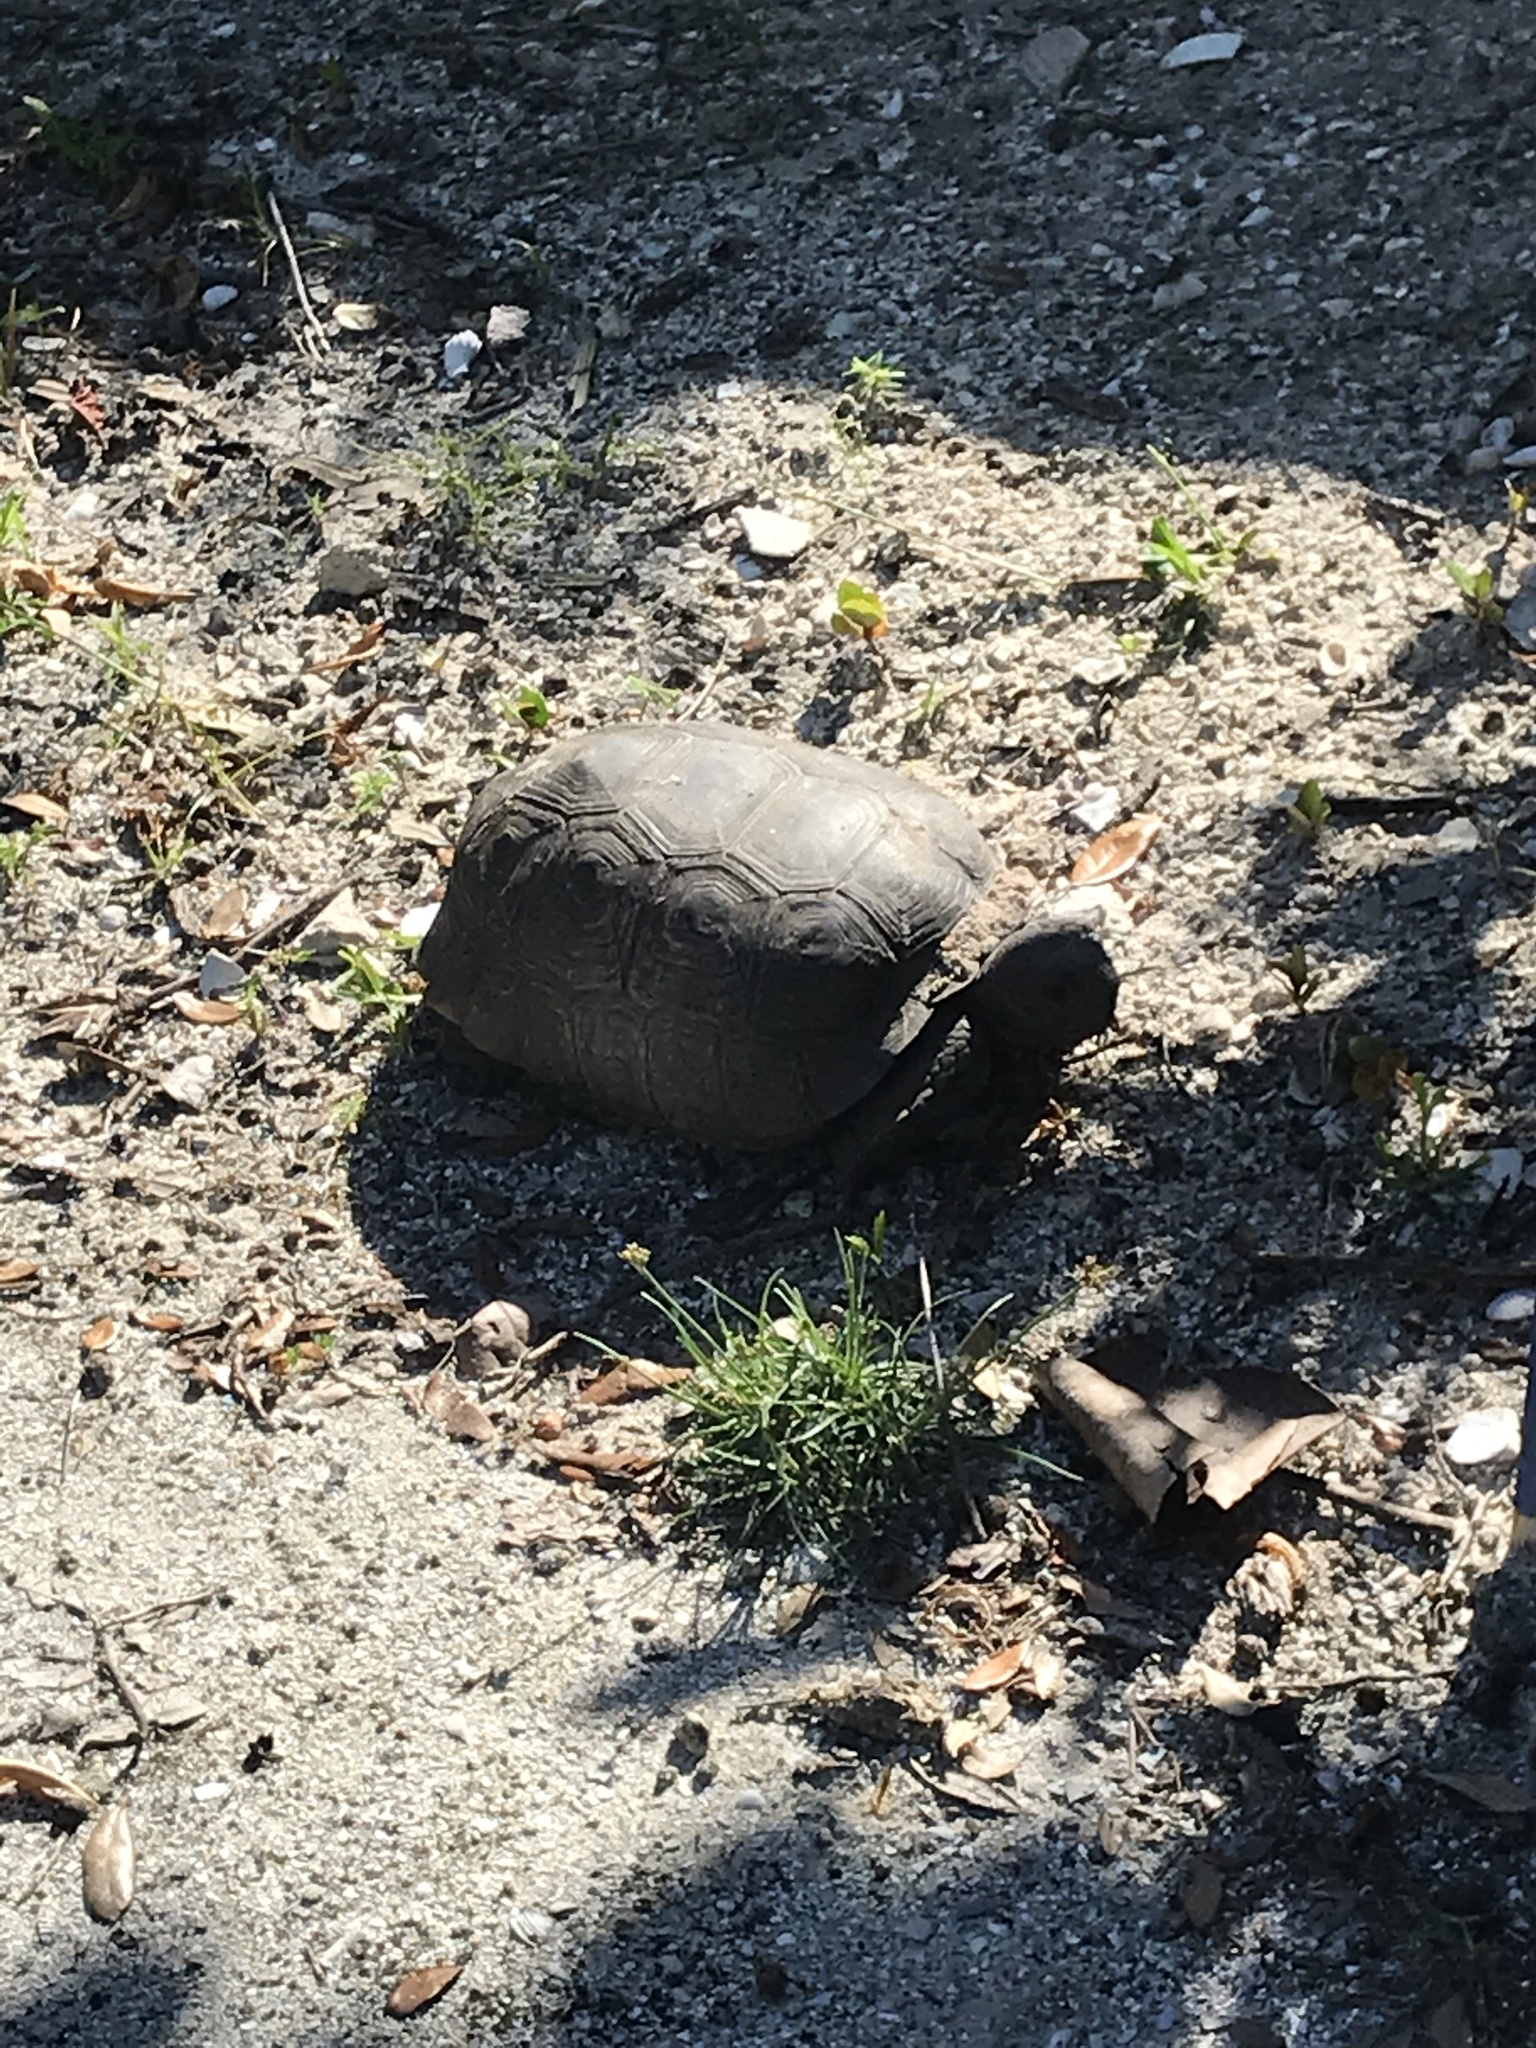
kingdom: Animalia
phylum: Chordata
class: Testudines
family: Testudinidae
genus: Gopherus
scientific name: Gopherus polyphemus
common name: Florida gopher tortoise
